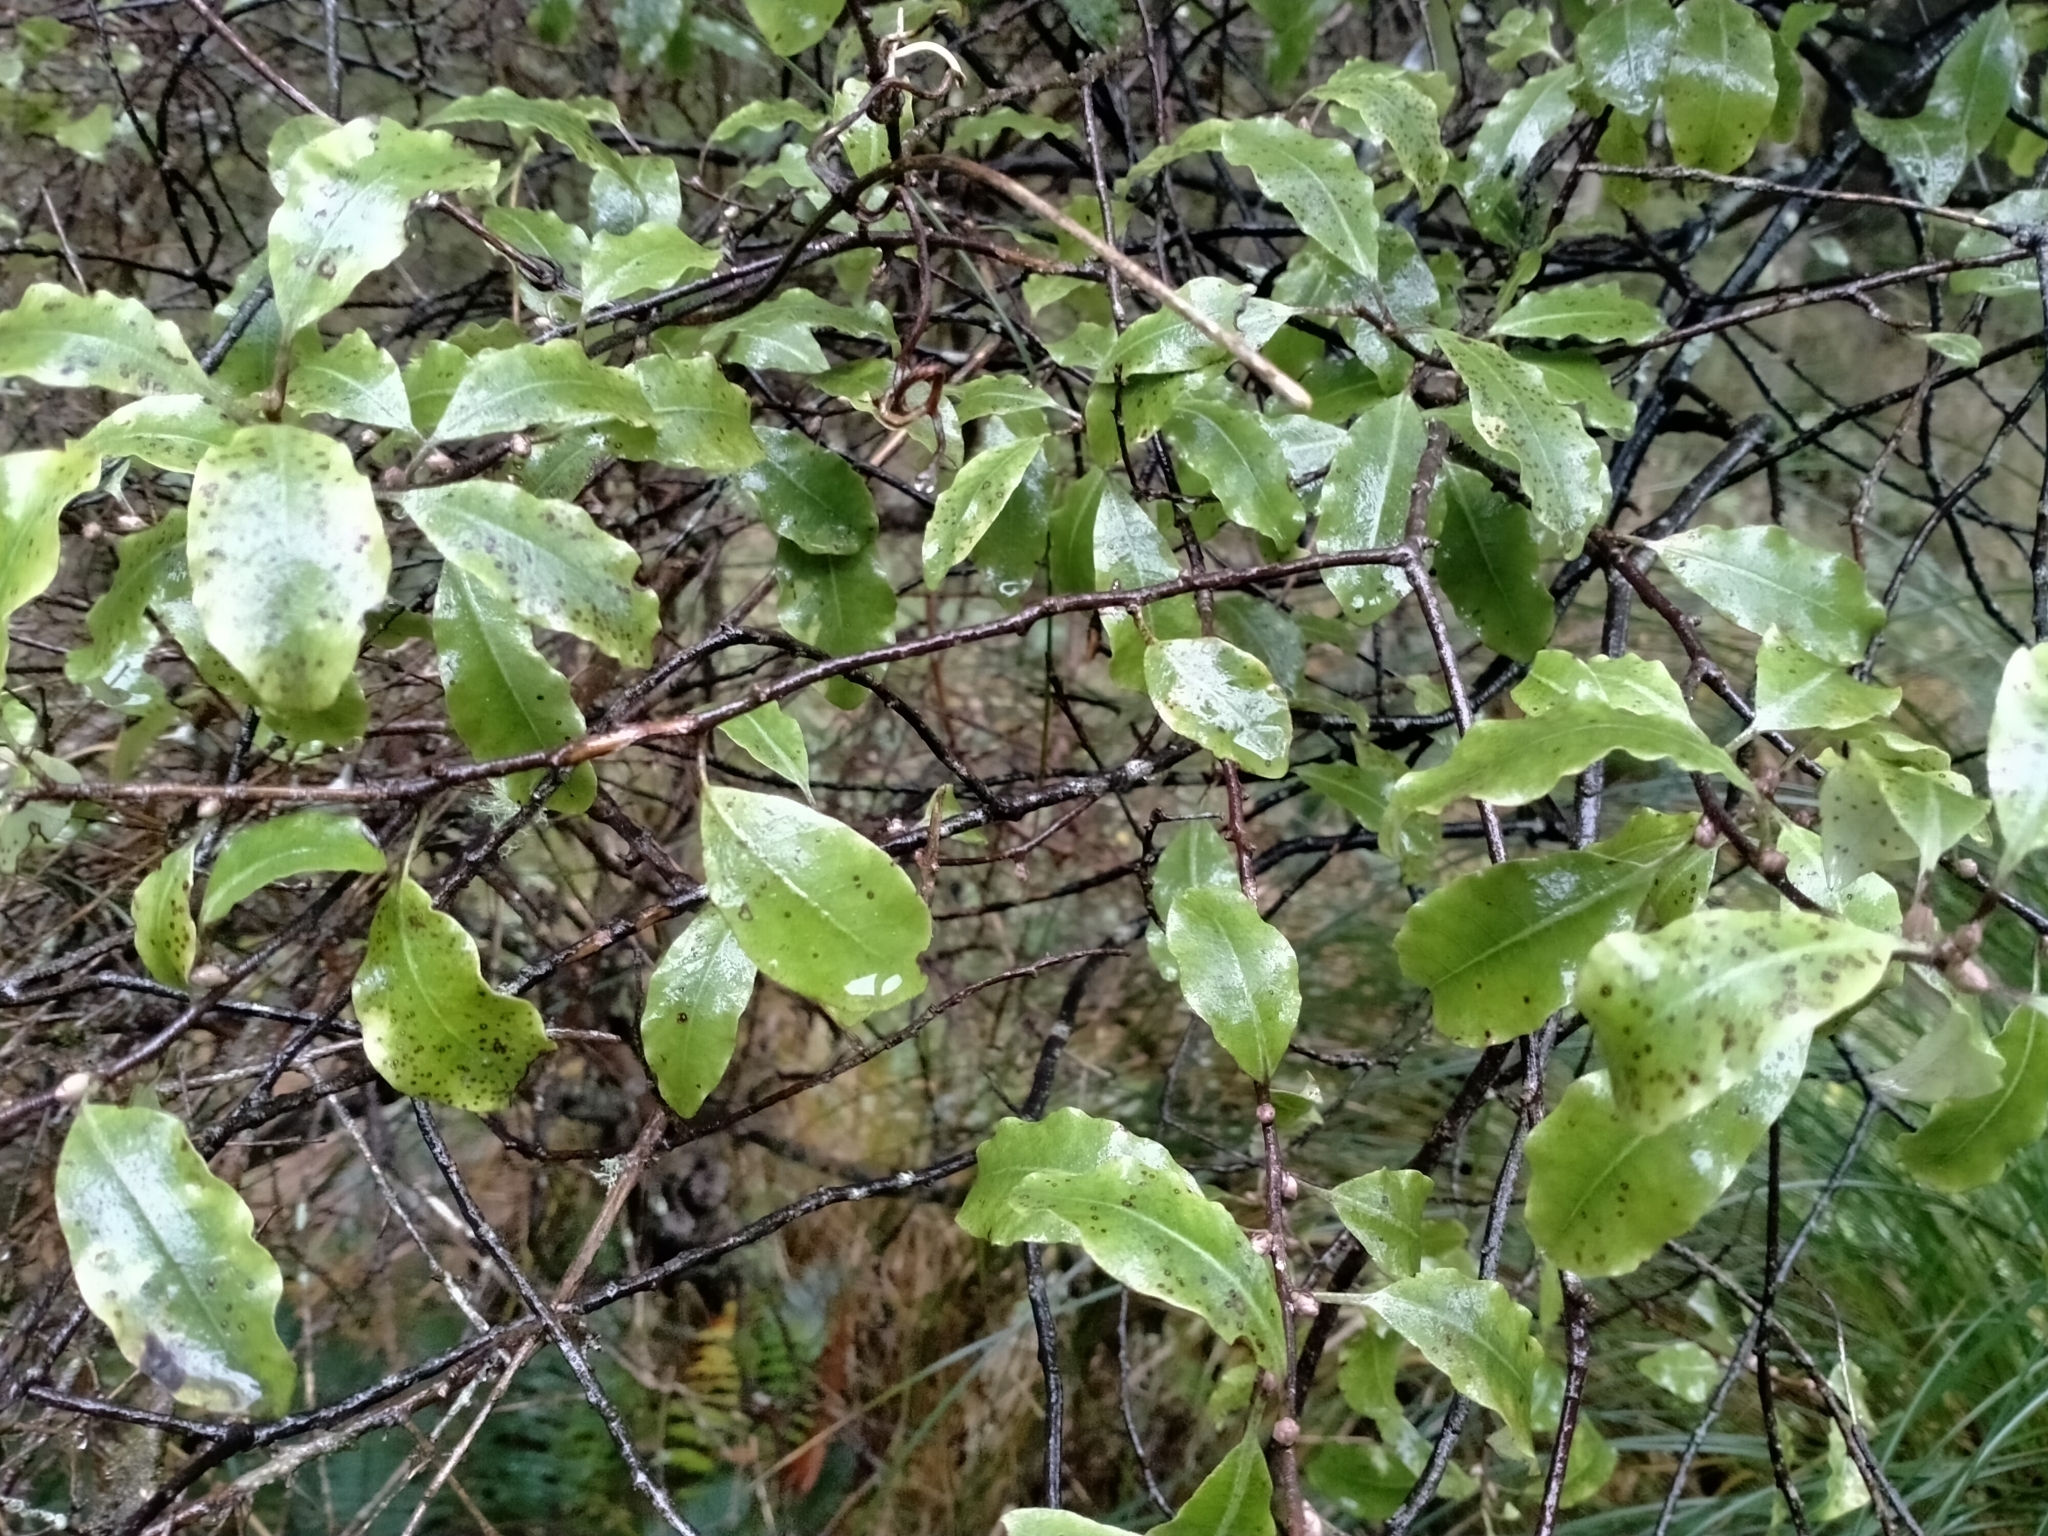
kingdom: Plantae
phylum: Tracheophyta
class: Magnoliopsida
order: Apiales
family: Pittosporaceae
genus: Pittosporum
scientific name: Pittosporum tenuifolium
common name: Kohuhu
